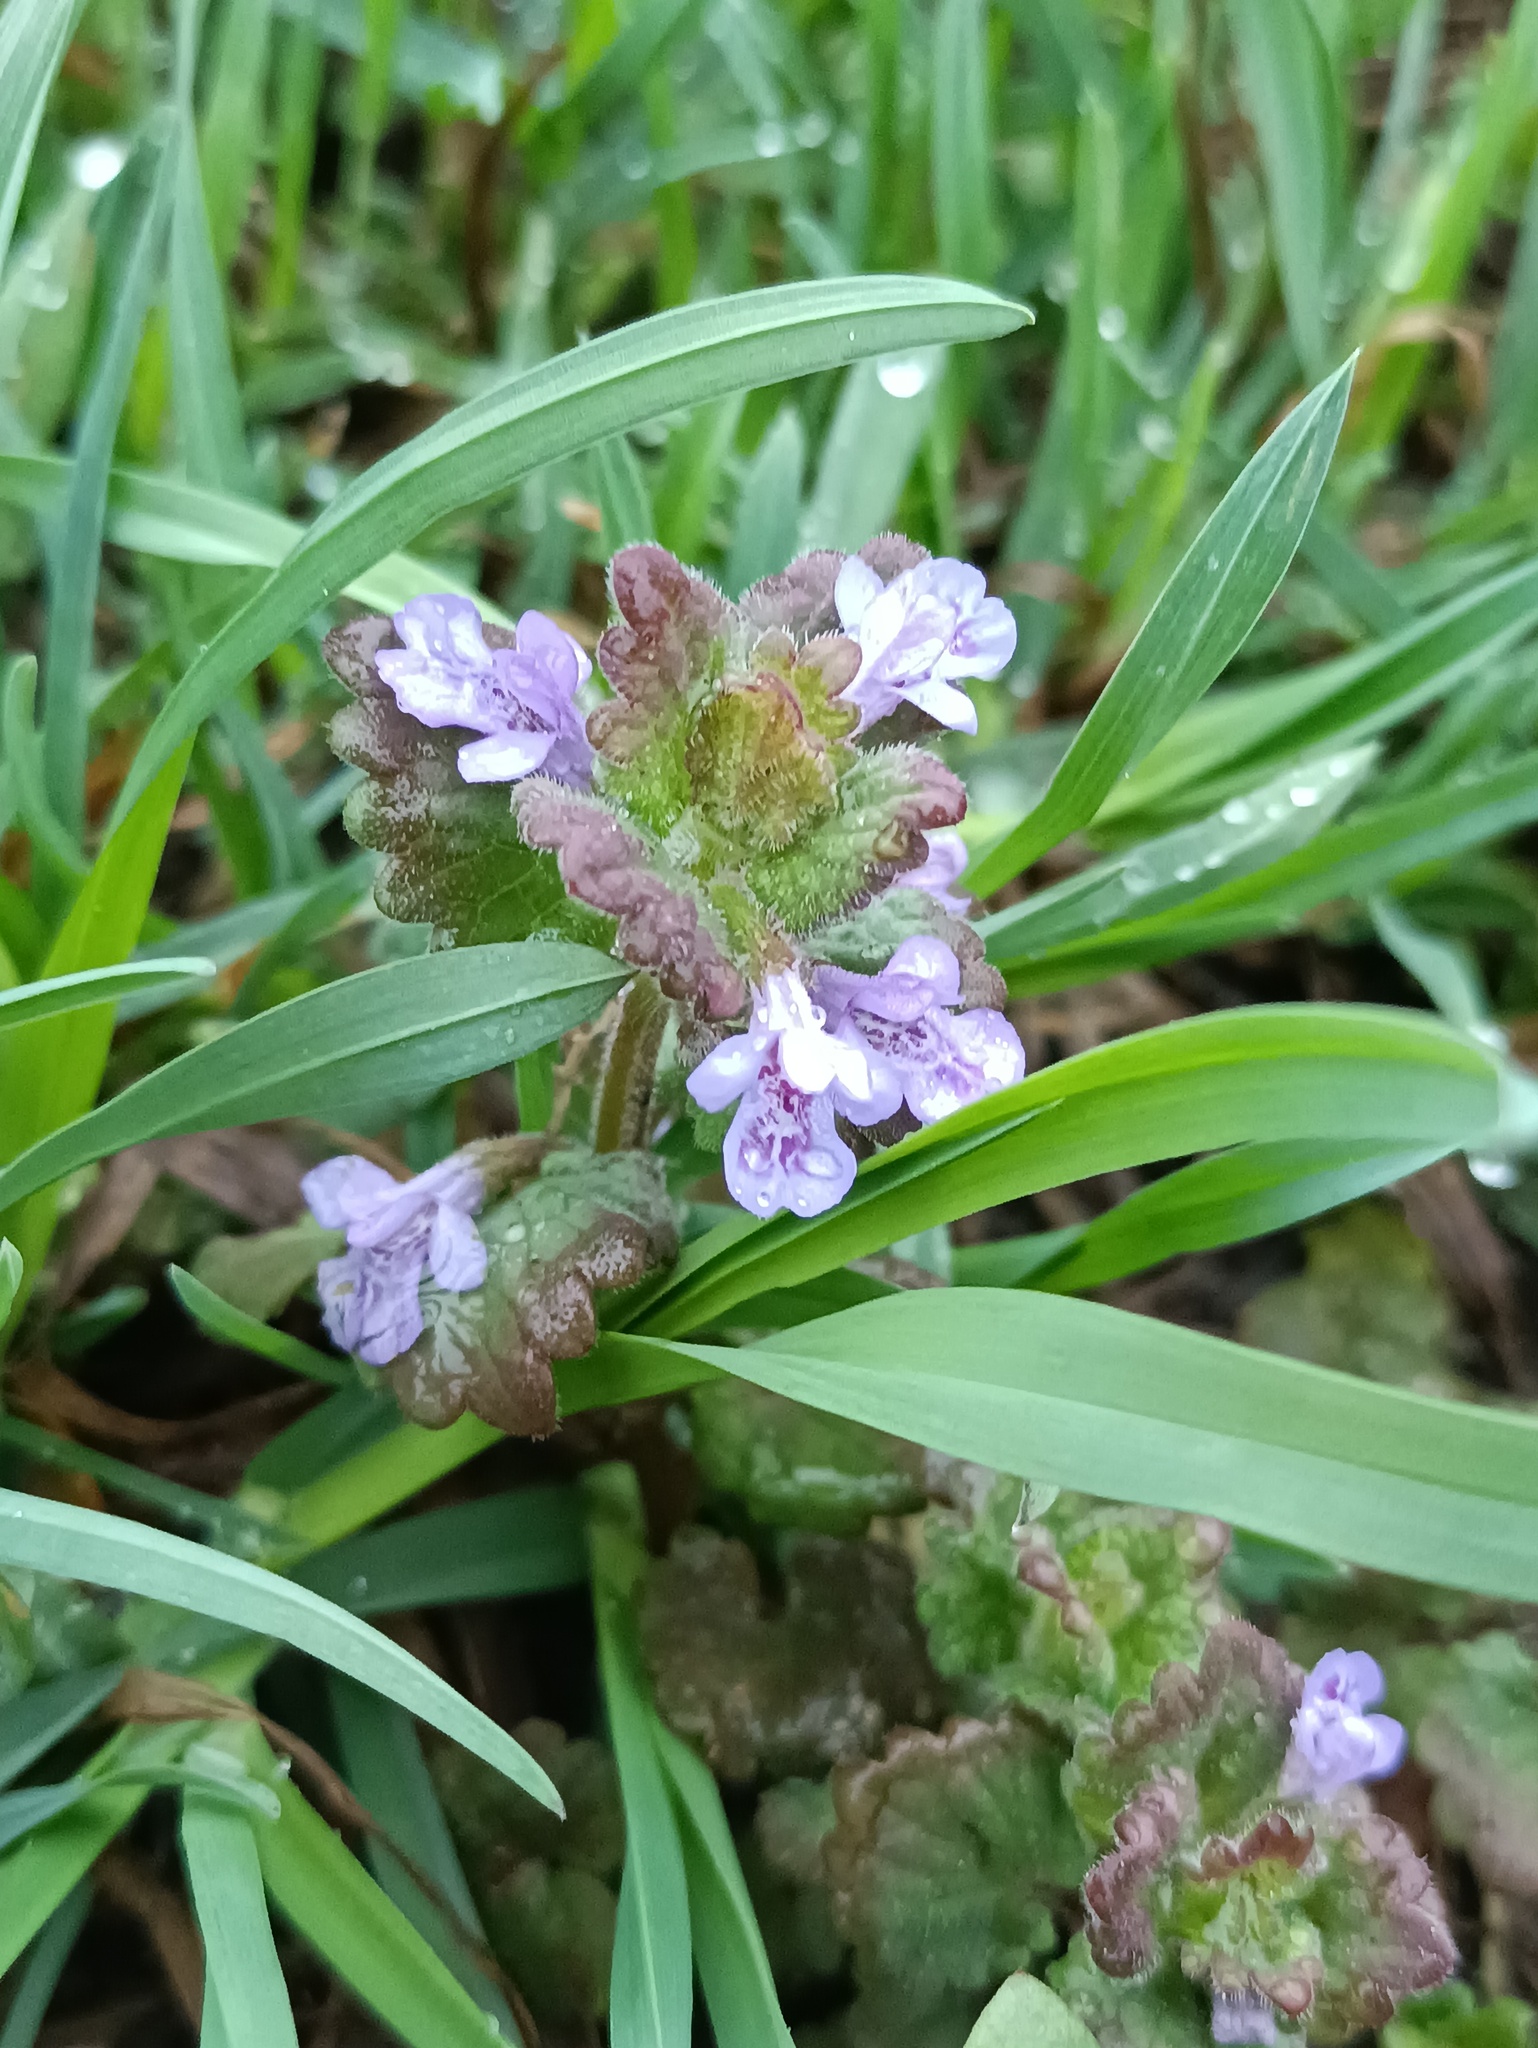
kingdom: Plantae
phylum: Tracheophyta
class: Magnoliopsida
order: Lamiales
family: Lamiaceae
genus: Glechoma
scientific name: Glechoma hederacea
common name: Ground ivy
